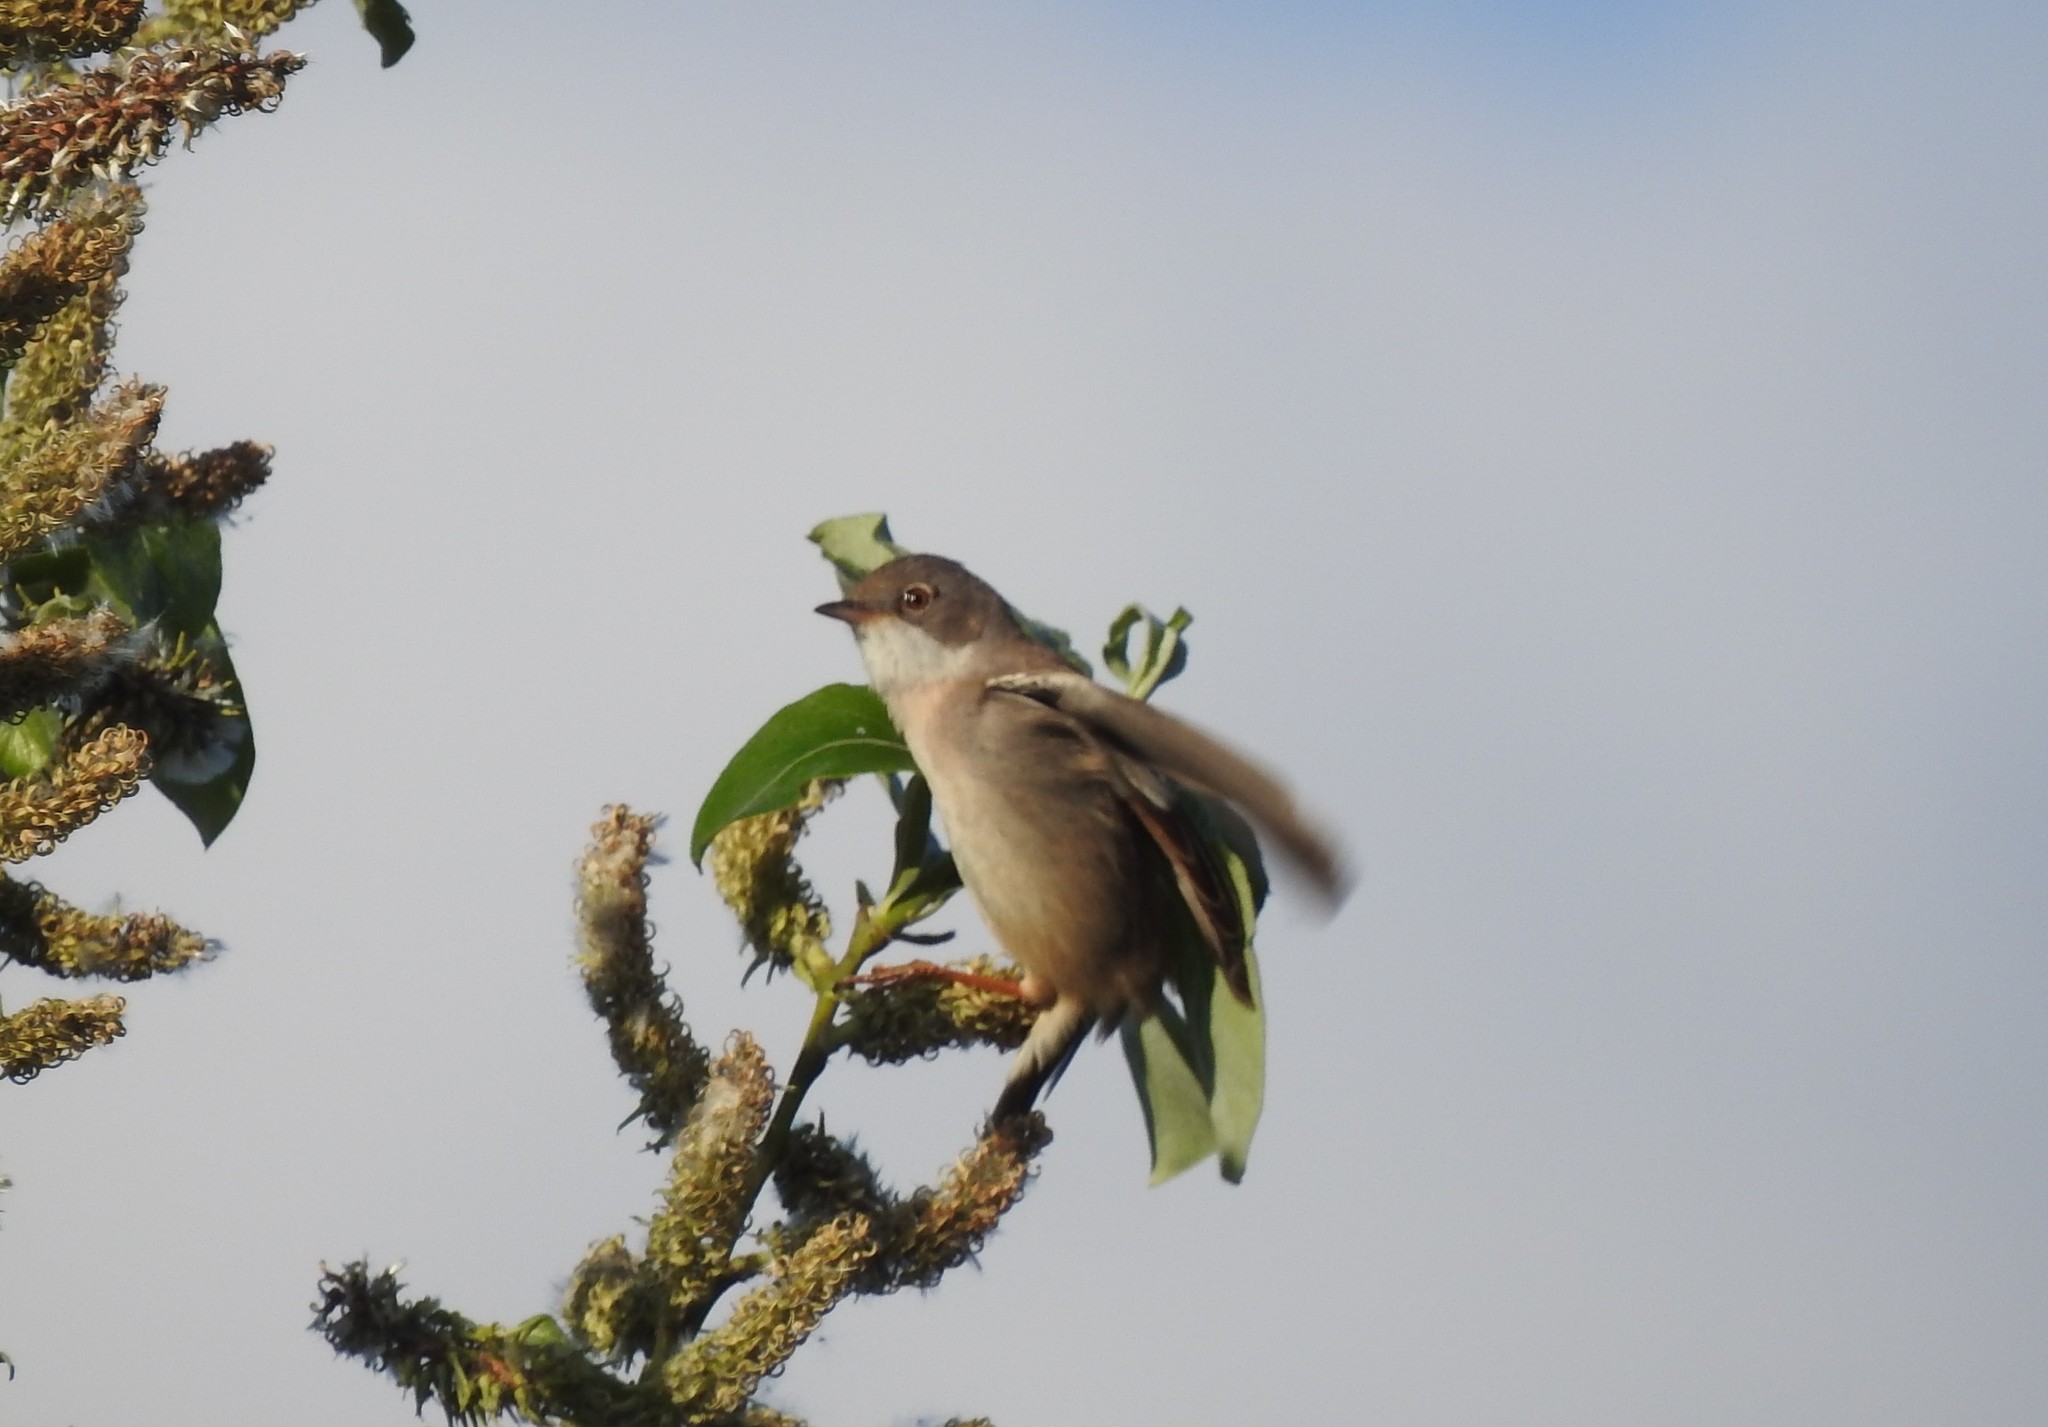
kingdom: Animalia
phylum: Chordata
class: Aves
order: Passeriformes
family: Sylviidae
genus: Sylvia
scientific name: Sylvia communis
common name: Common whitethroat
